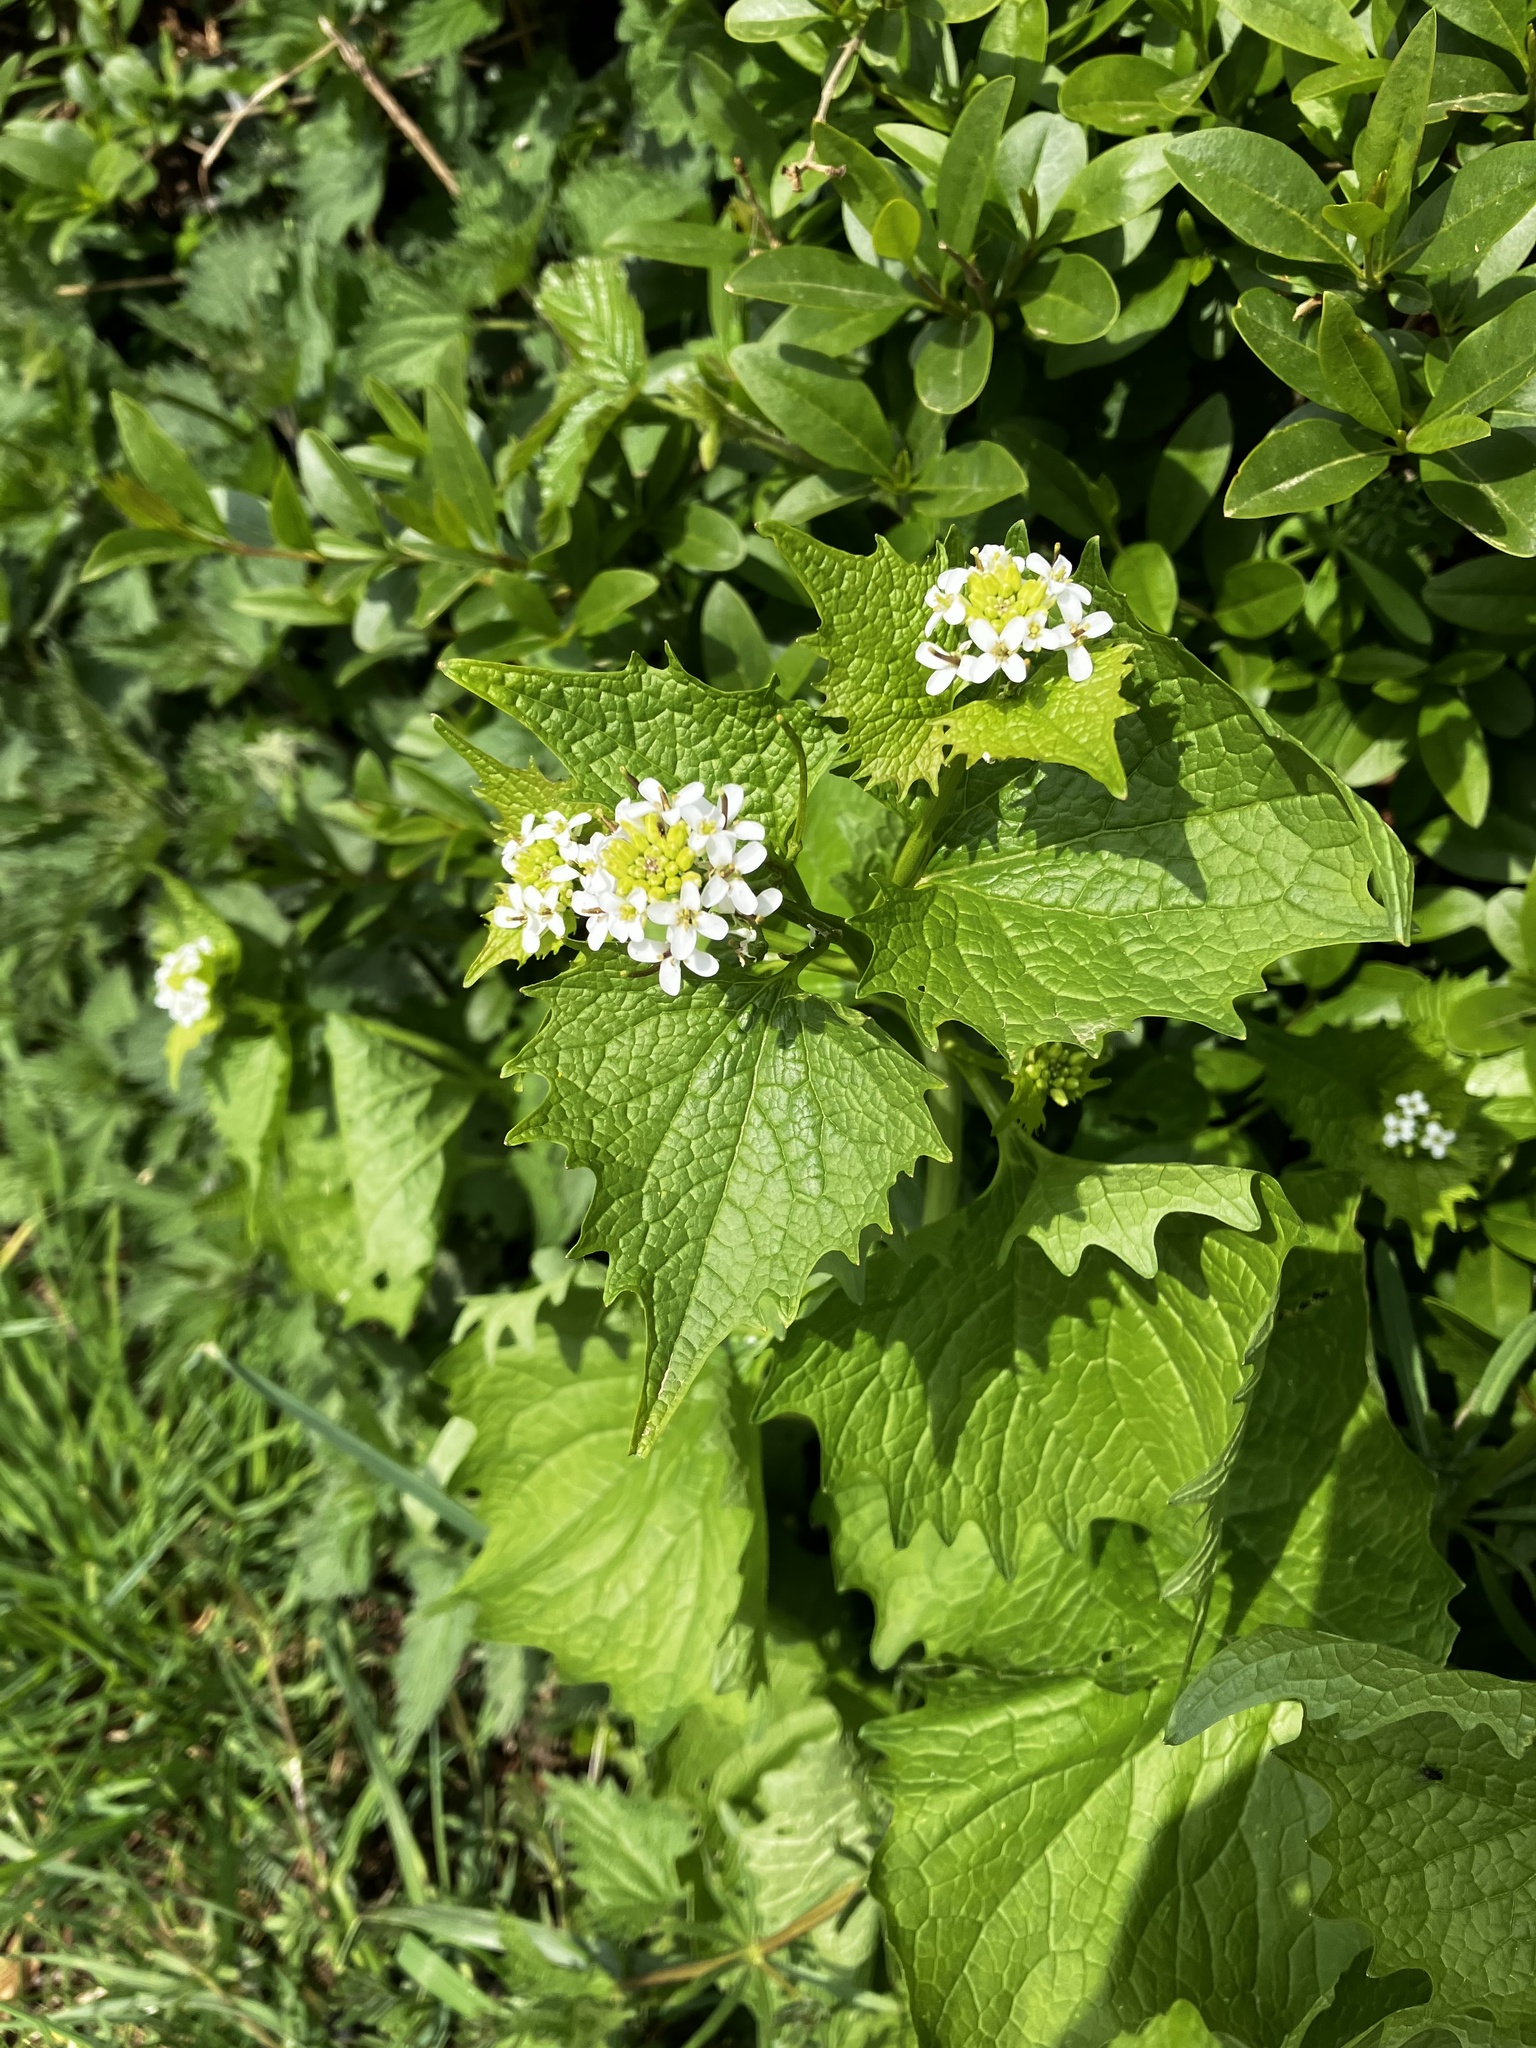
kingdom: Plantae
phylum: Tracheophyta
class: Magnoliopsida
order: Brassicales
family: Brassicaceae
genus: Alliaria
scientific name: Alliaria petiolata
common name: Garlic mustard
